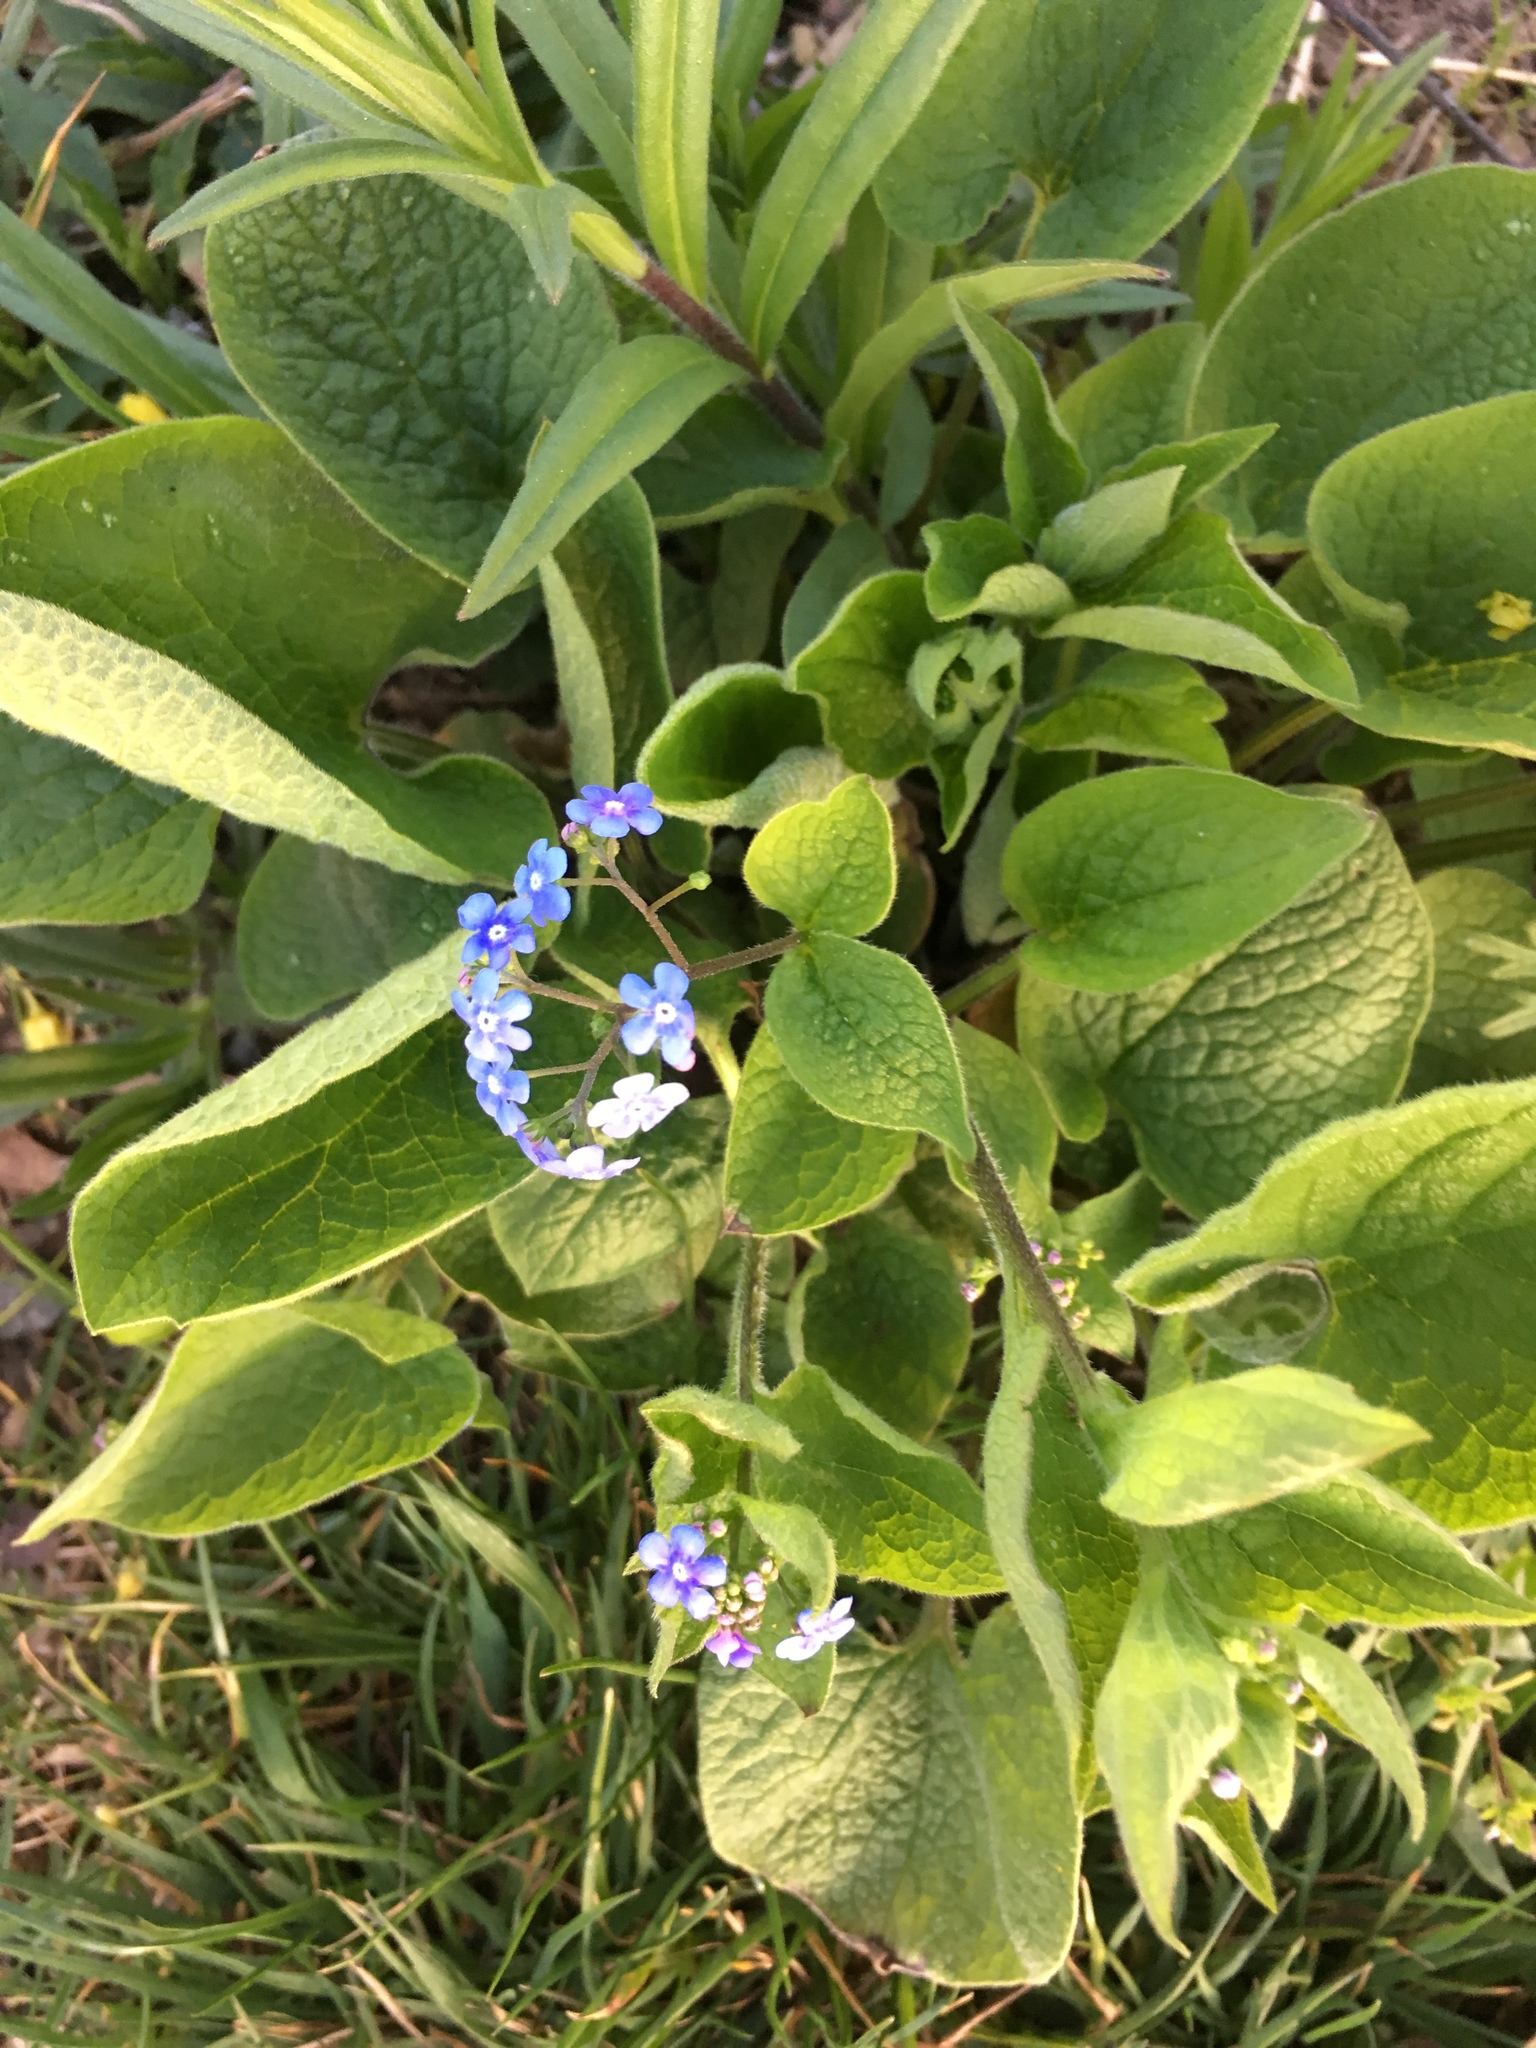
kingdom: Plantae
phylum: Tracheophyta
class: Magnoliopsida
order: Boraginales
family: Boraginaceae
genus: Brunnera
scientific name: Brunnera macrophylla
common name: Great forget-me-not
